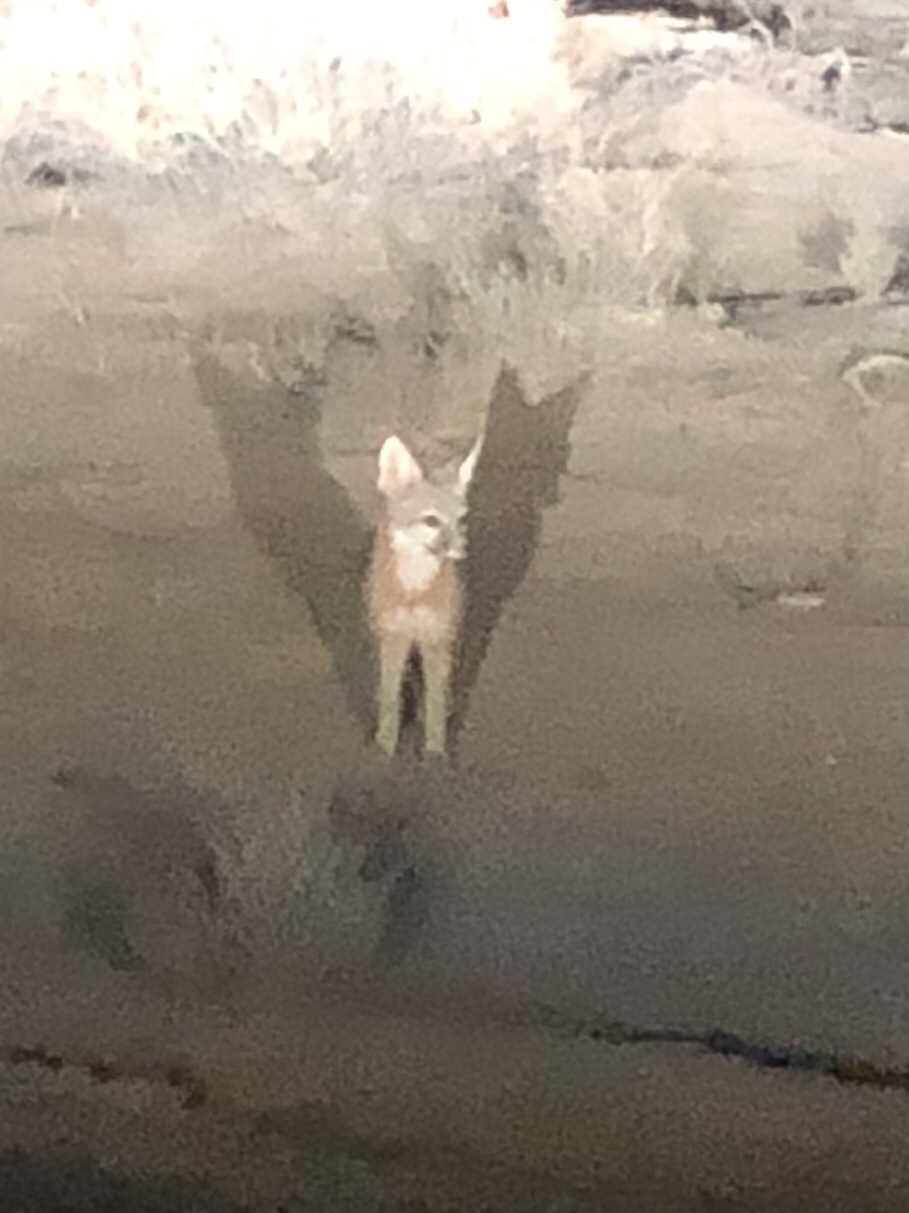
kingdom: Animalia
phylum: Chordata
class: Mammalia
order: Carnivora
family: Canidae
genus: Vulpes
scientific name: Vulpes macrotis
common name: Kit fox
